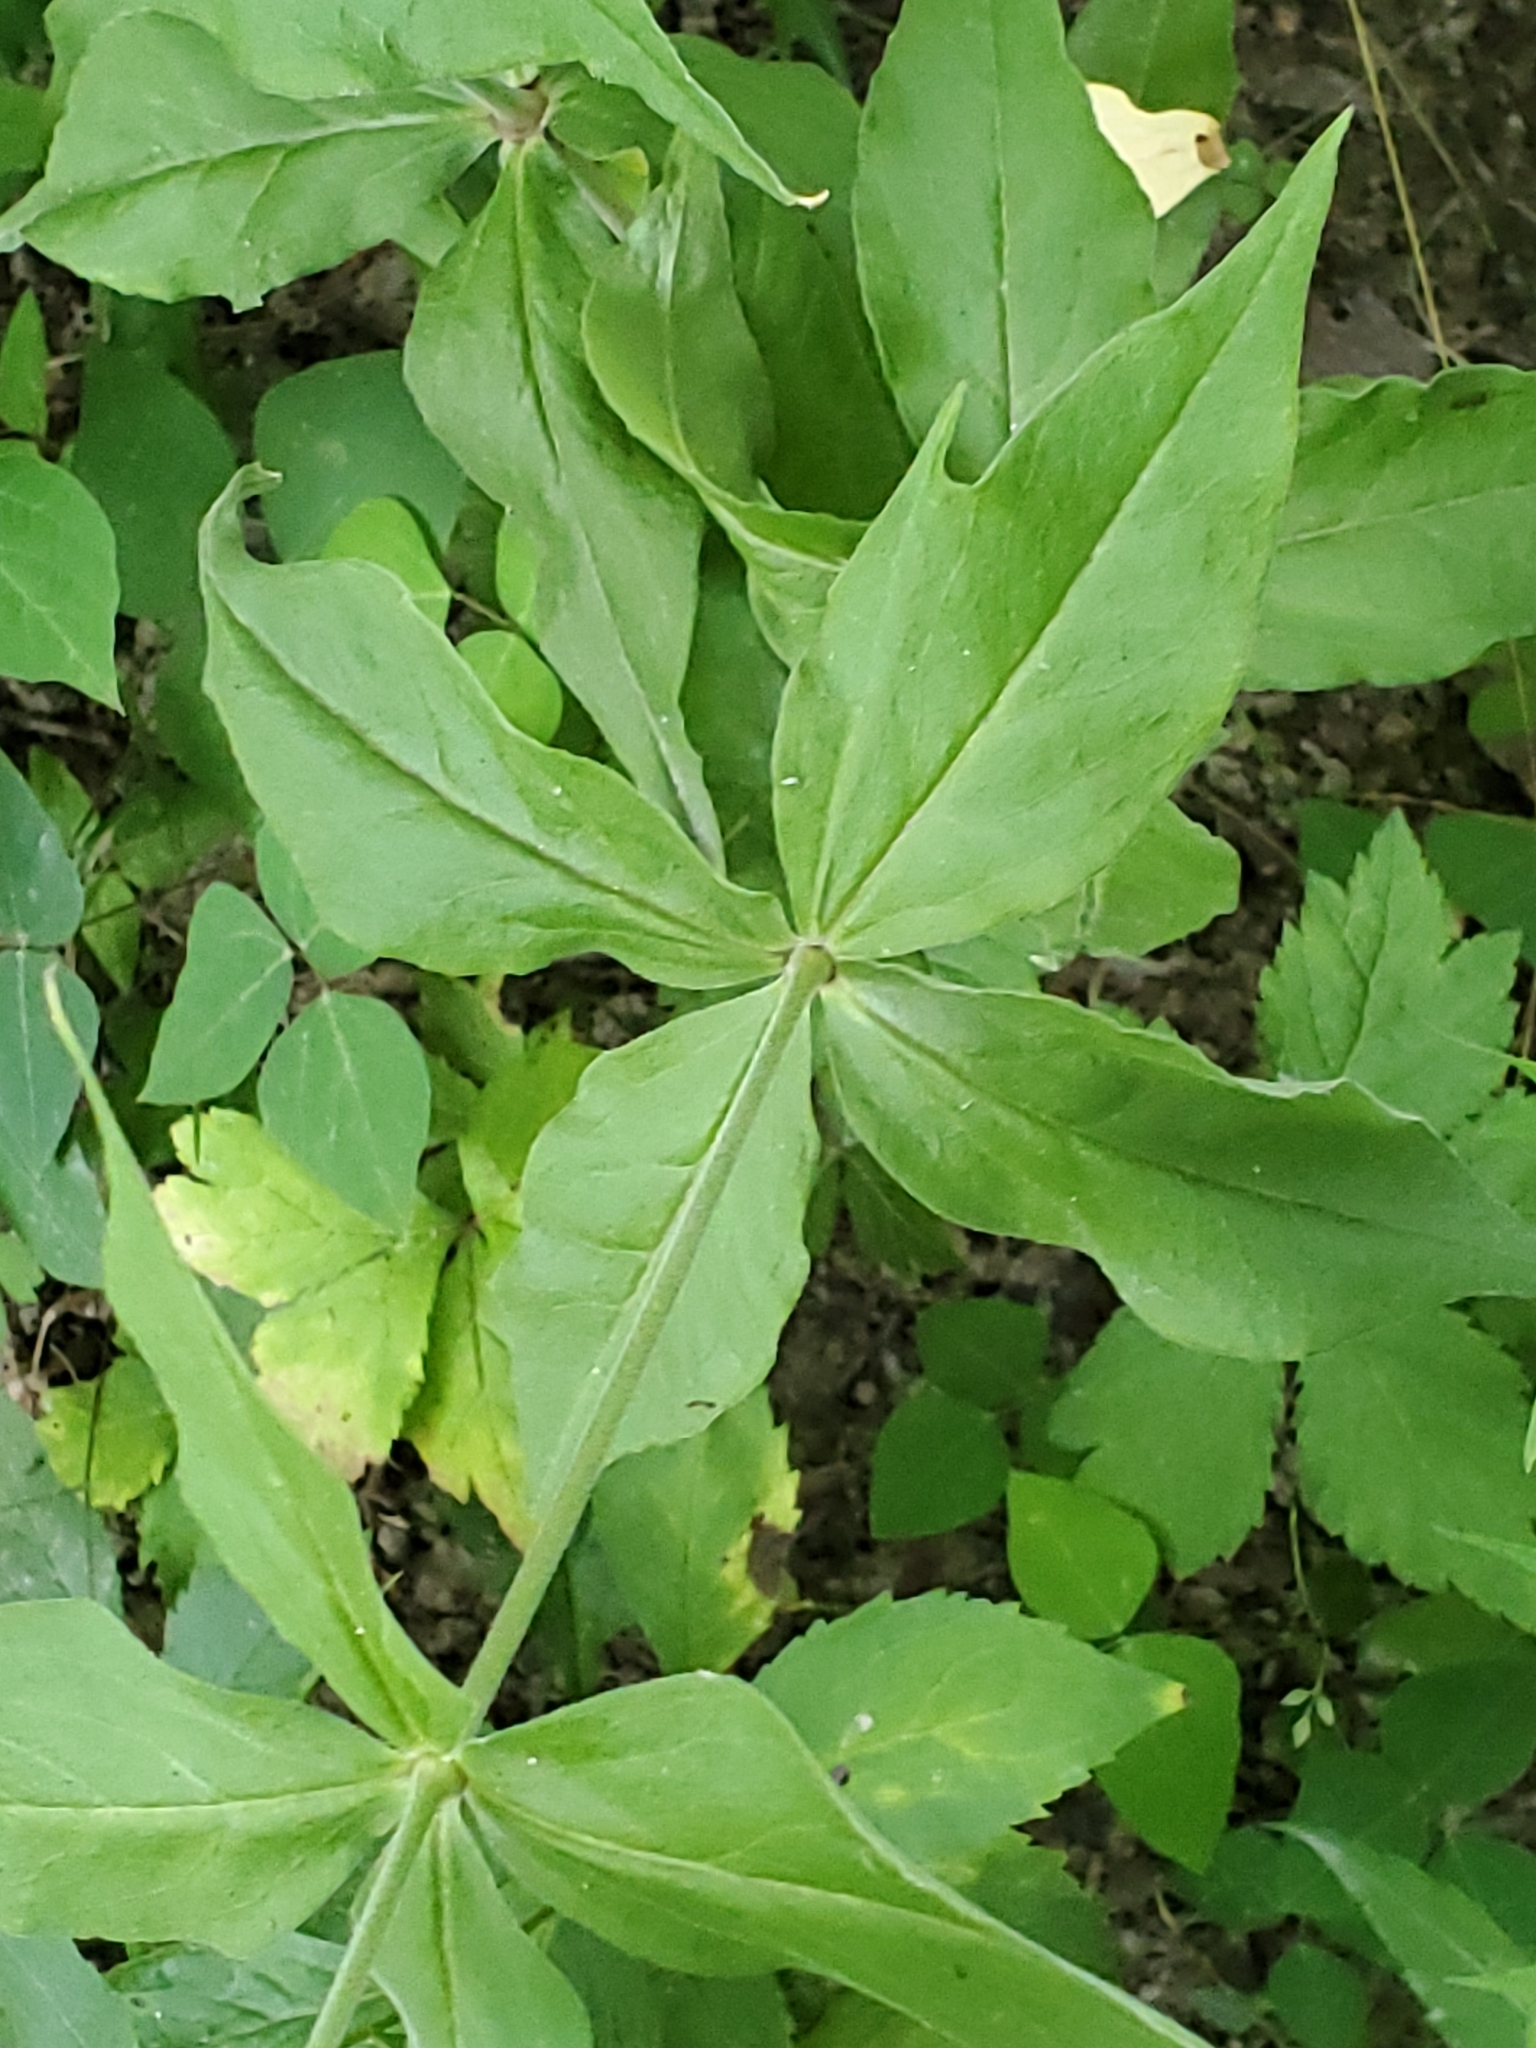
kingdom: Plantae
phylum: Tracheophyta
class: Magnoliopsida
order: Caryophyllales
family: Caryophyllaceae
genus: Silene
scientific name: Silene stellata
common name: Starry campion
